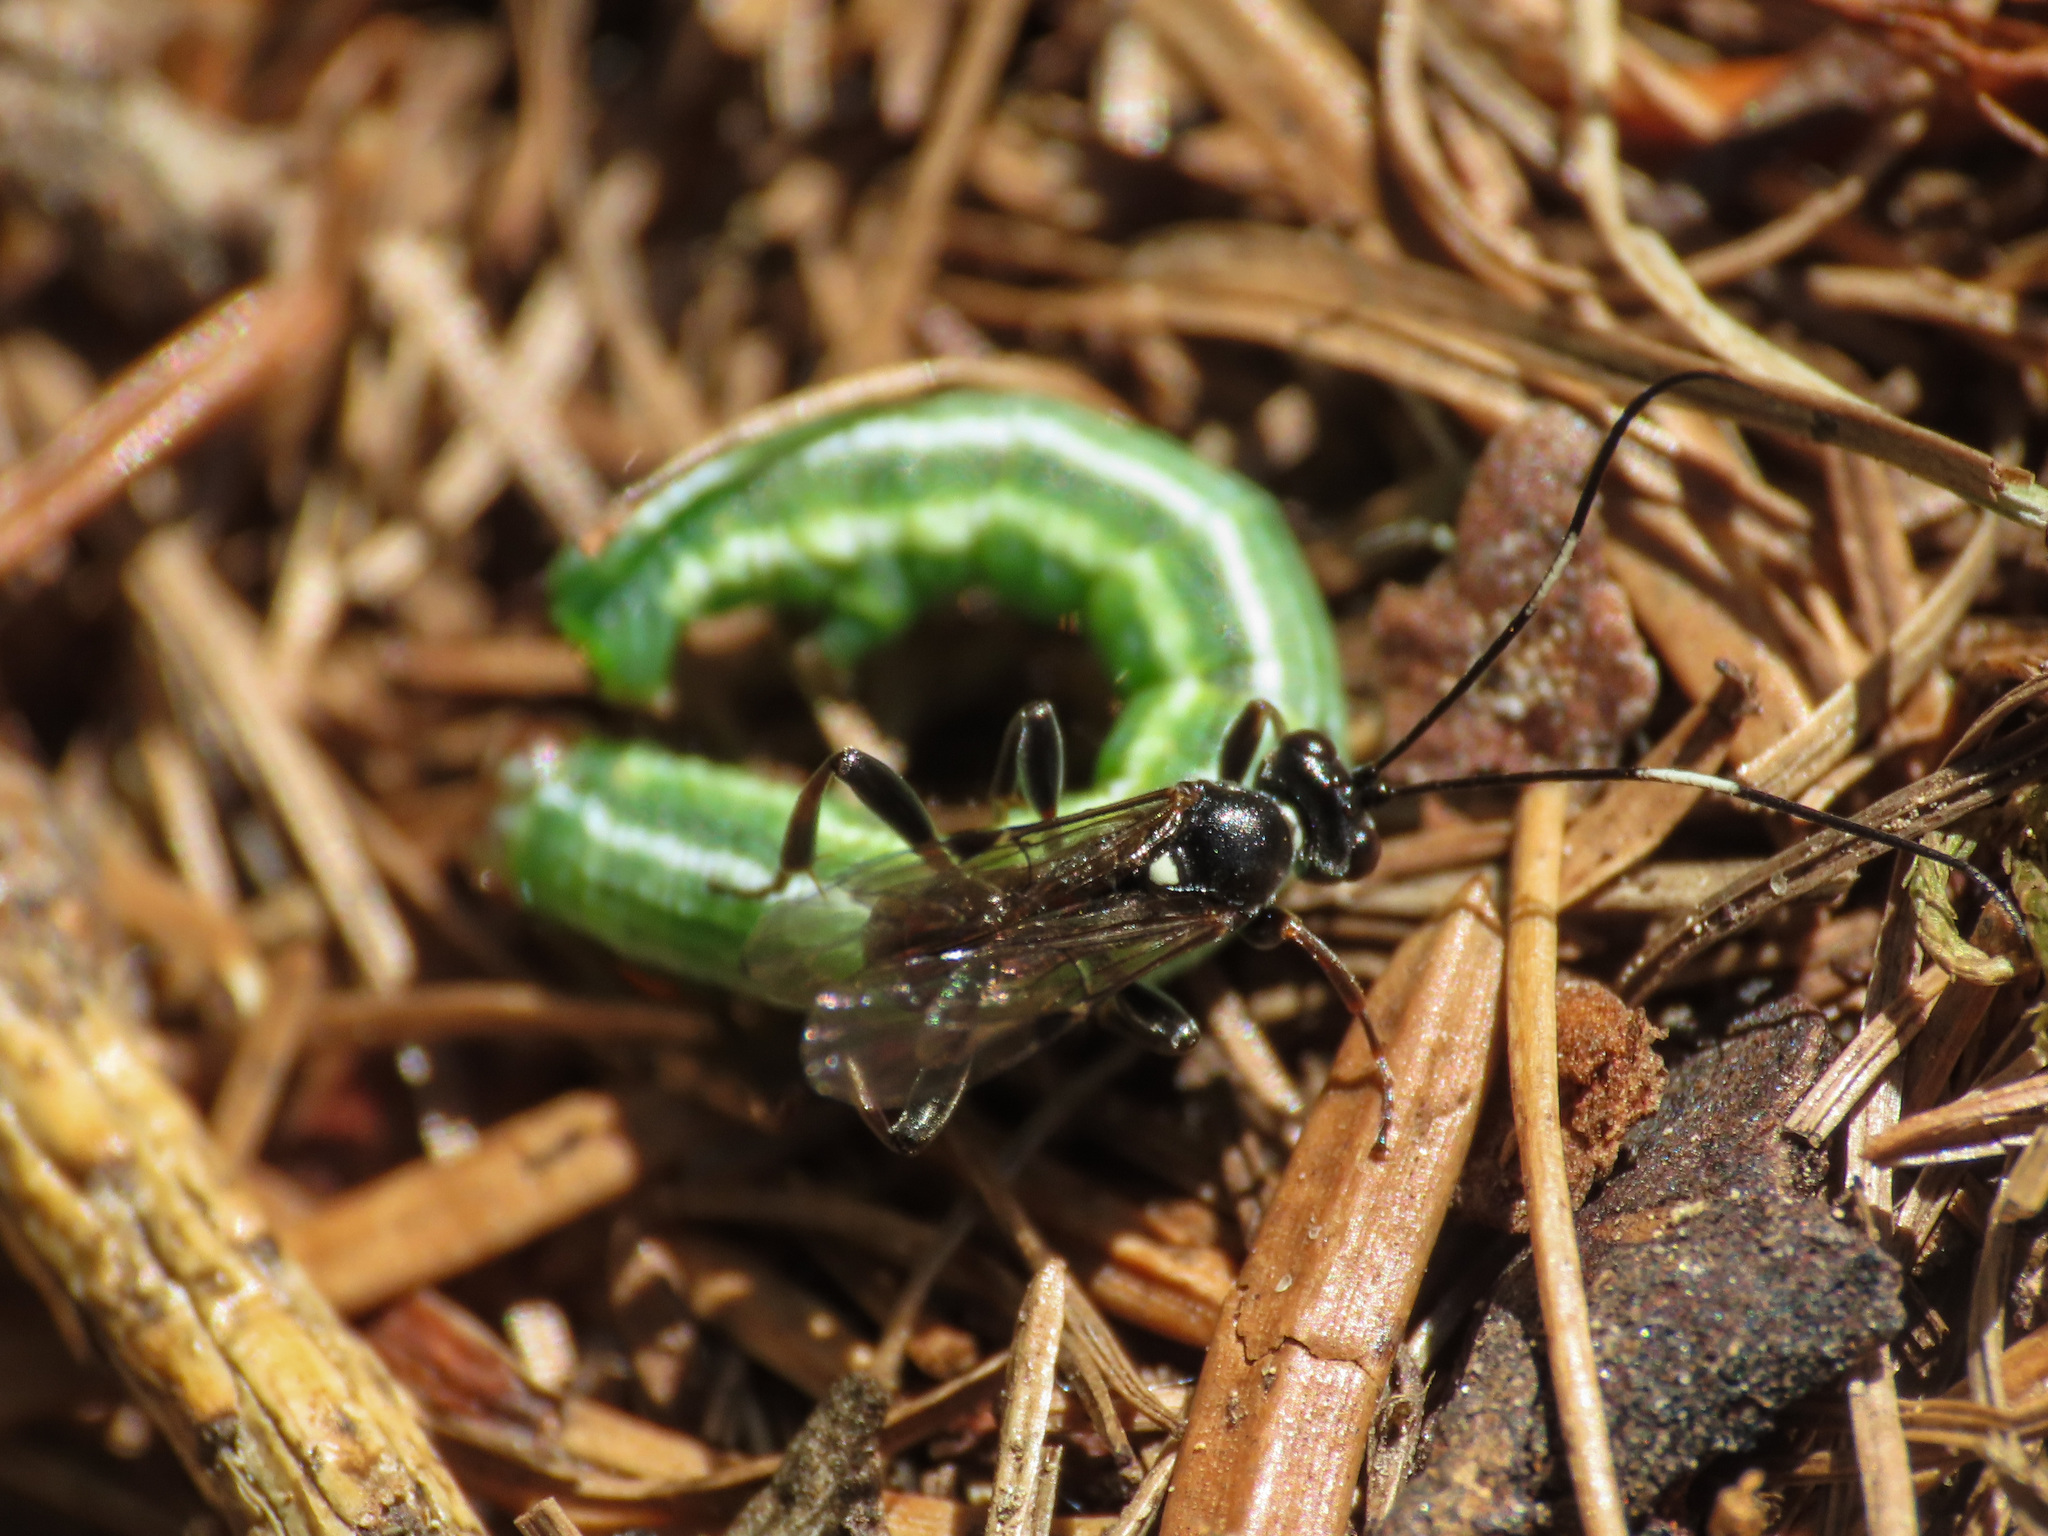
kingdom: Animalia
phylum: Arthropoda
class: Insecta
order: Lepidoptera
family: Geometridae
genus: Macaria
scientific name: Macaria liturata
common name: Tawny-barred angle
